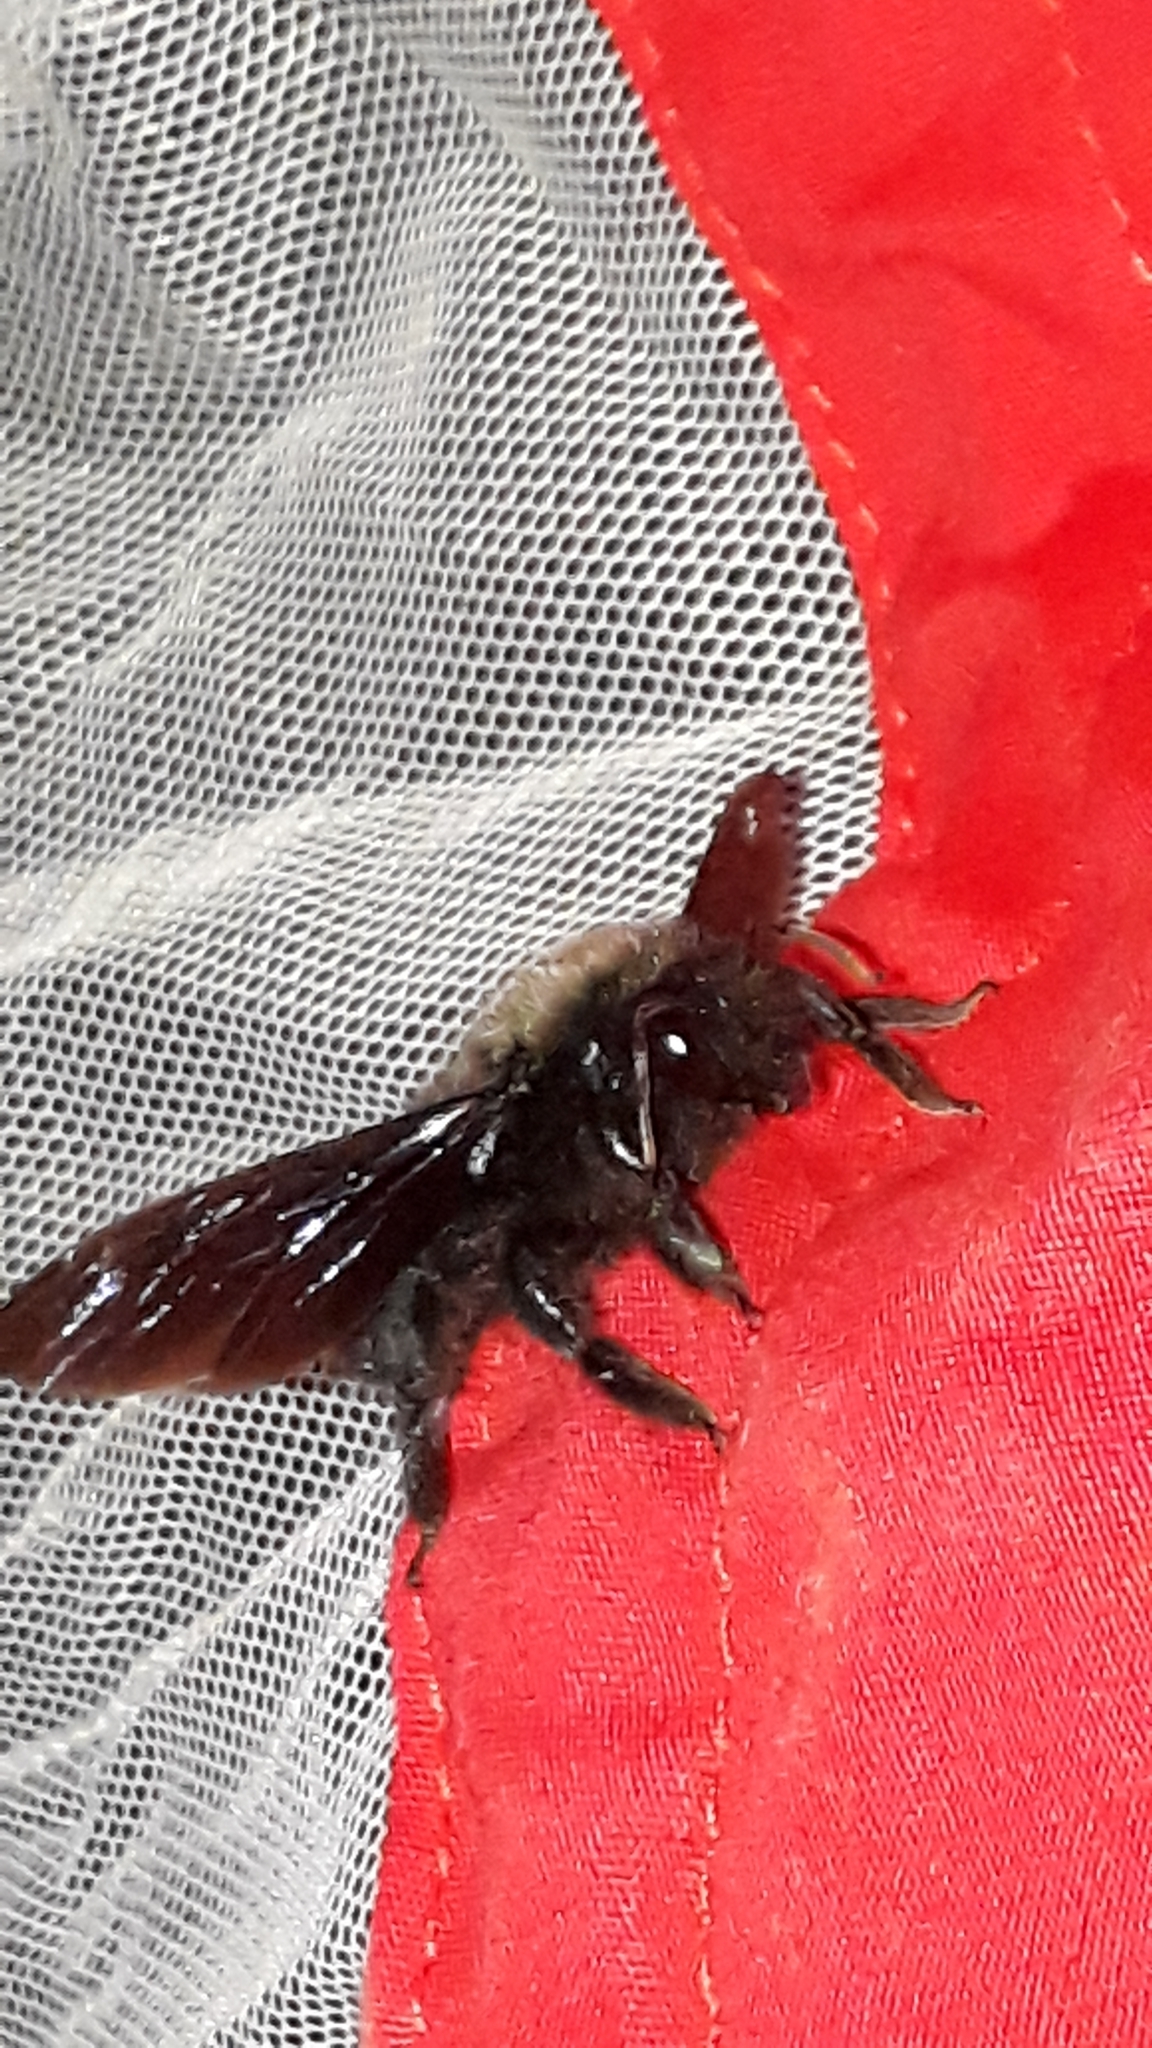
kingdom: Animalia
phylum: Arthropoda
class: Insecta
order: Hymenoptera
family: Apidae
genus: Xylocopa
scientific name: Xylocopa violacea
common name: Violet carpenter bee
